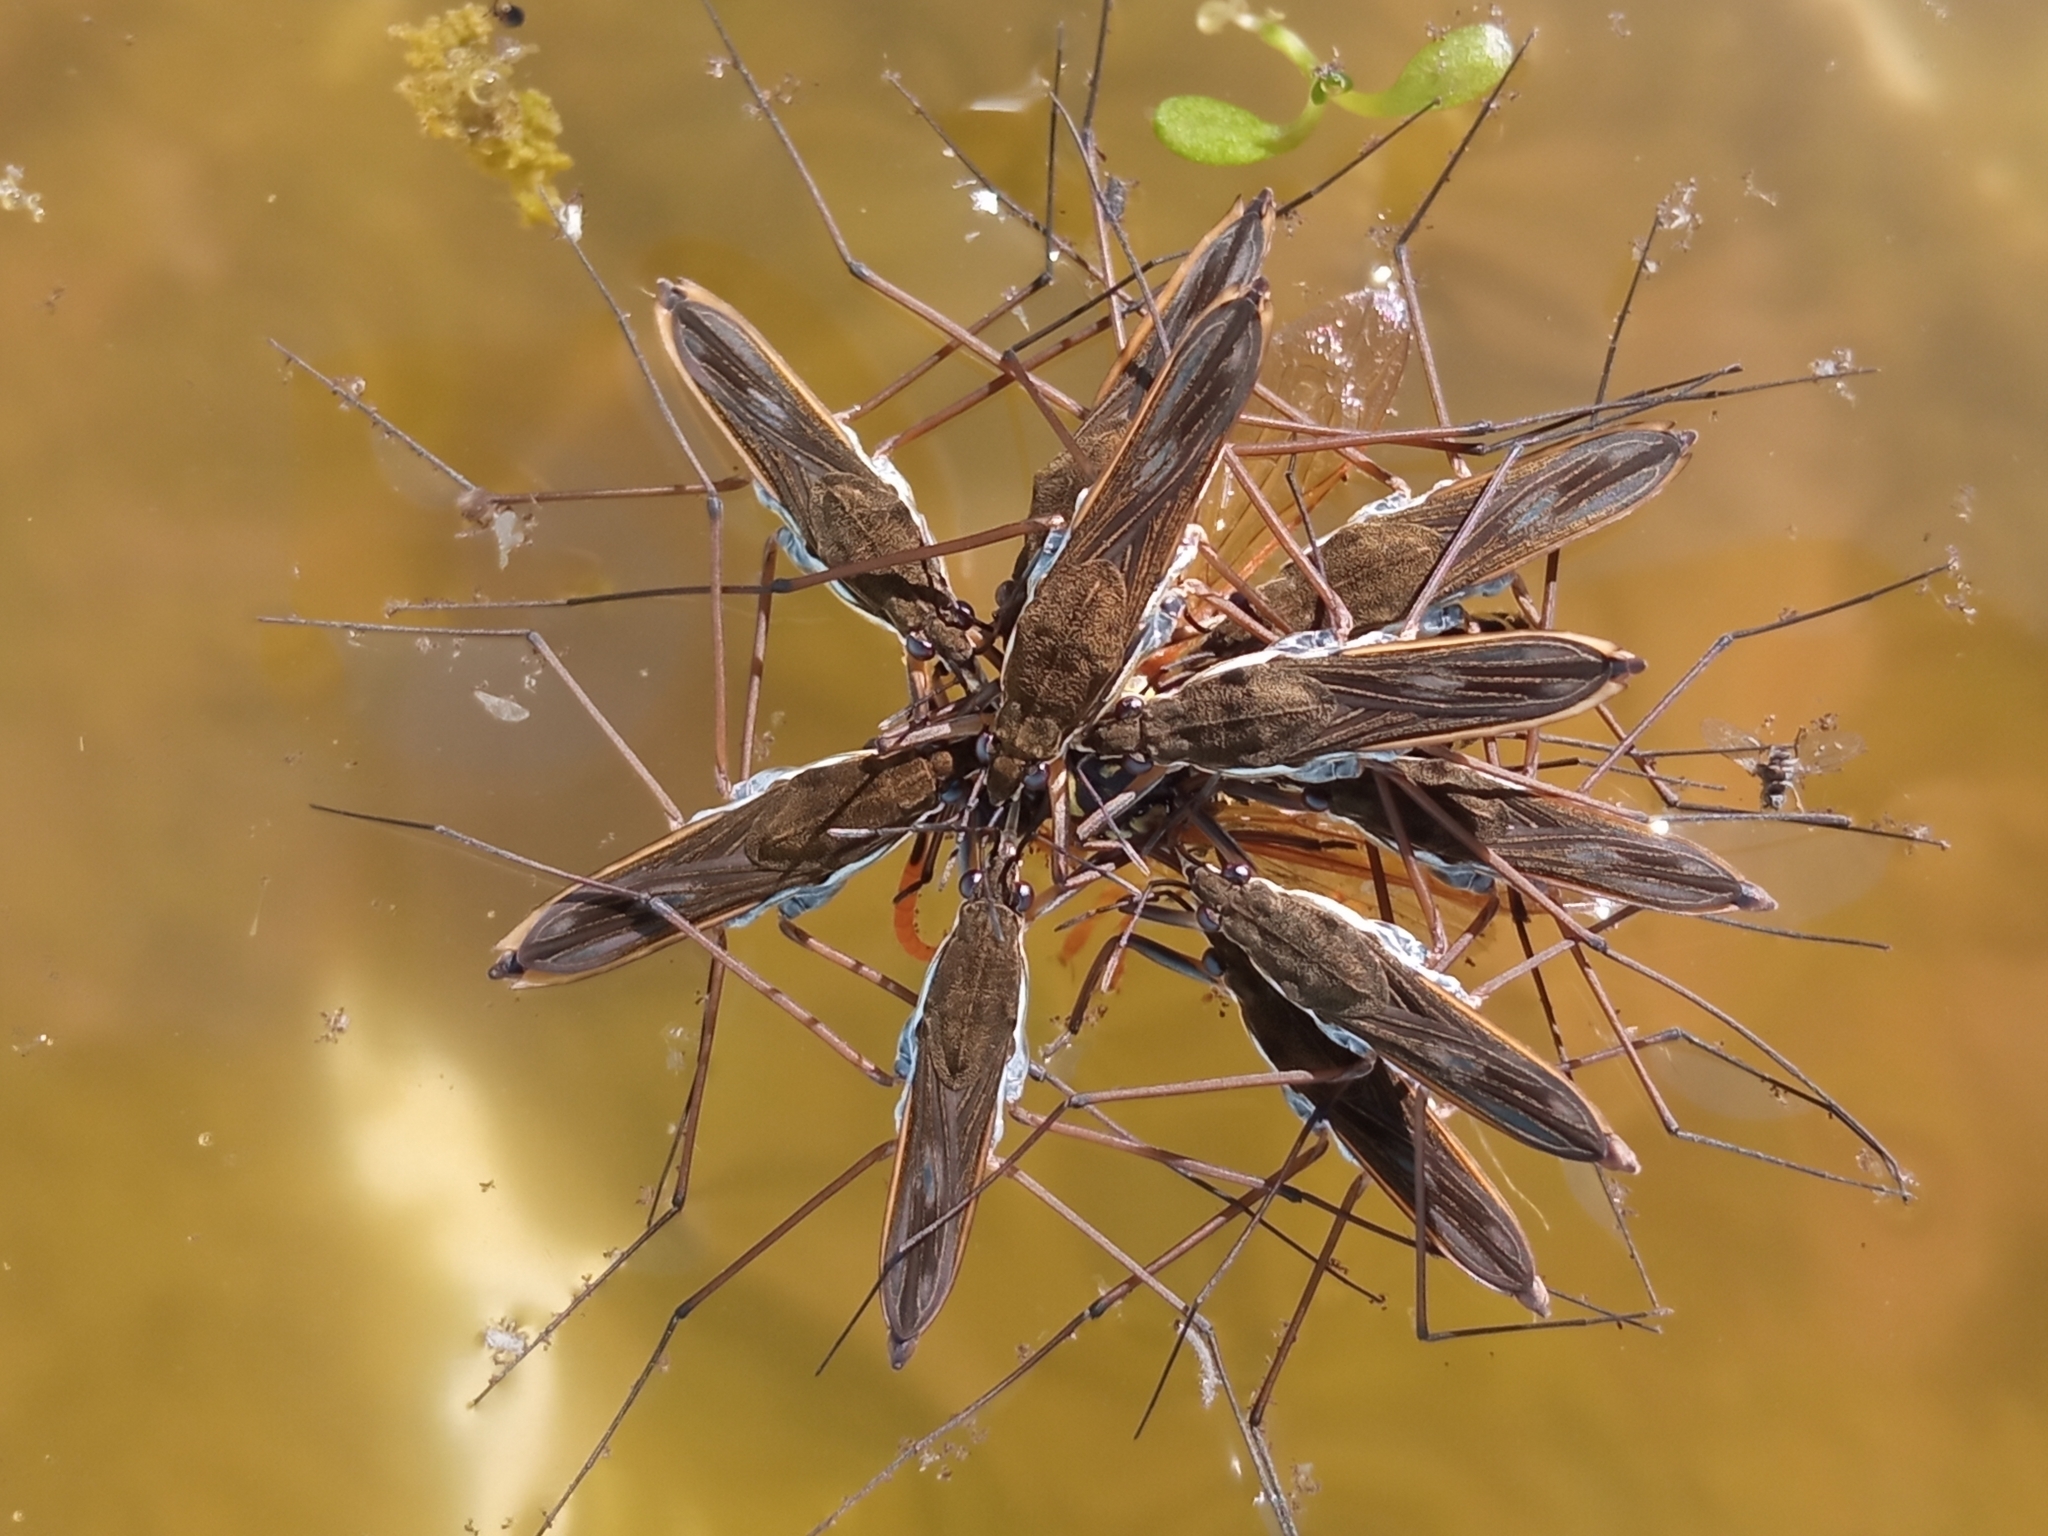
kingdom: Animalia
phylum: Arthropoda
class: Insecta
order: Hemiptera
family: Gerridae
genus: Gerris
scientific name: Gerris gibbifer
